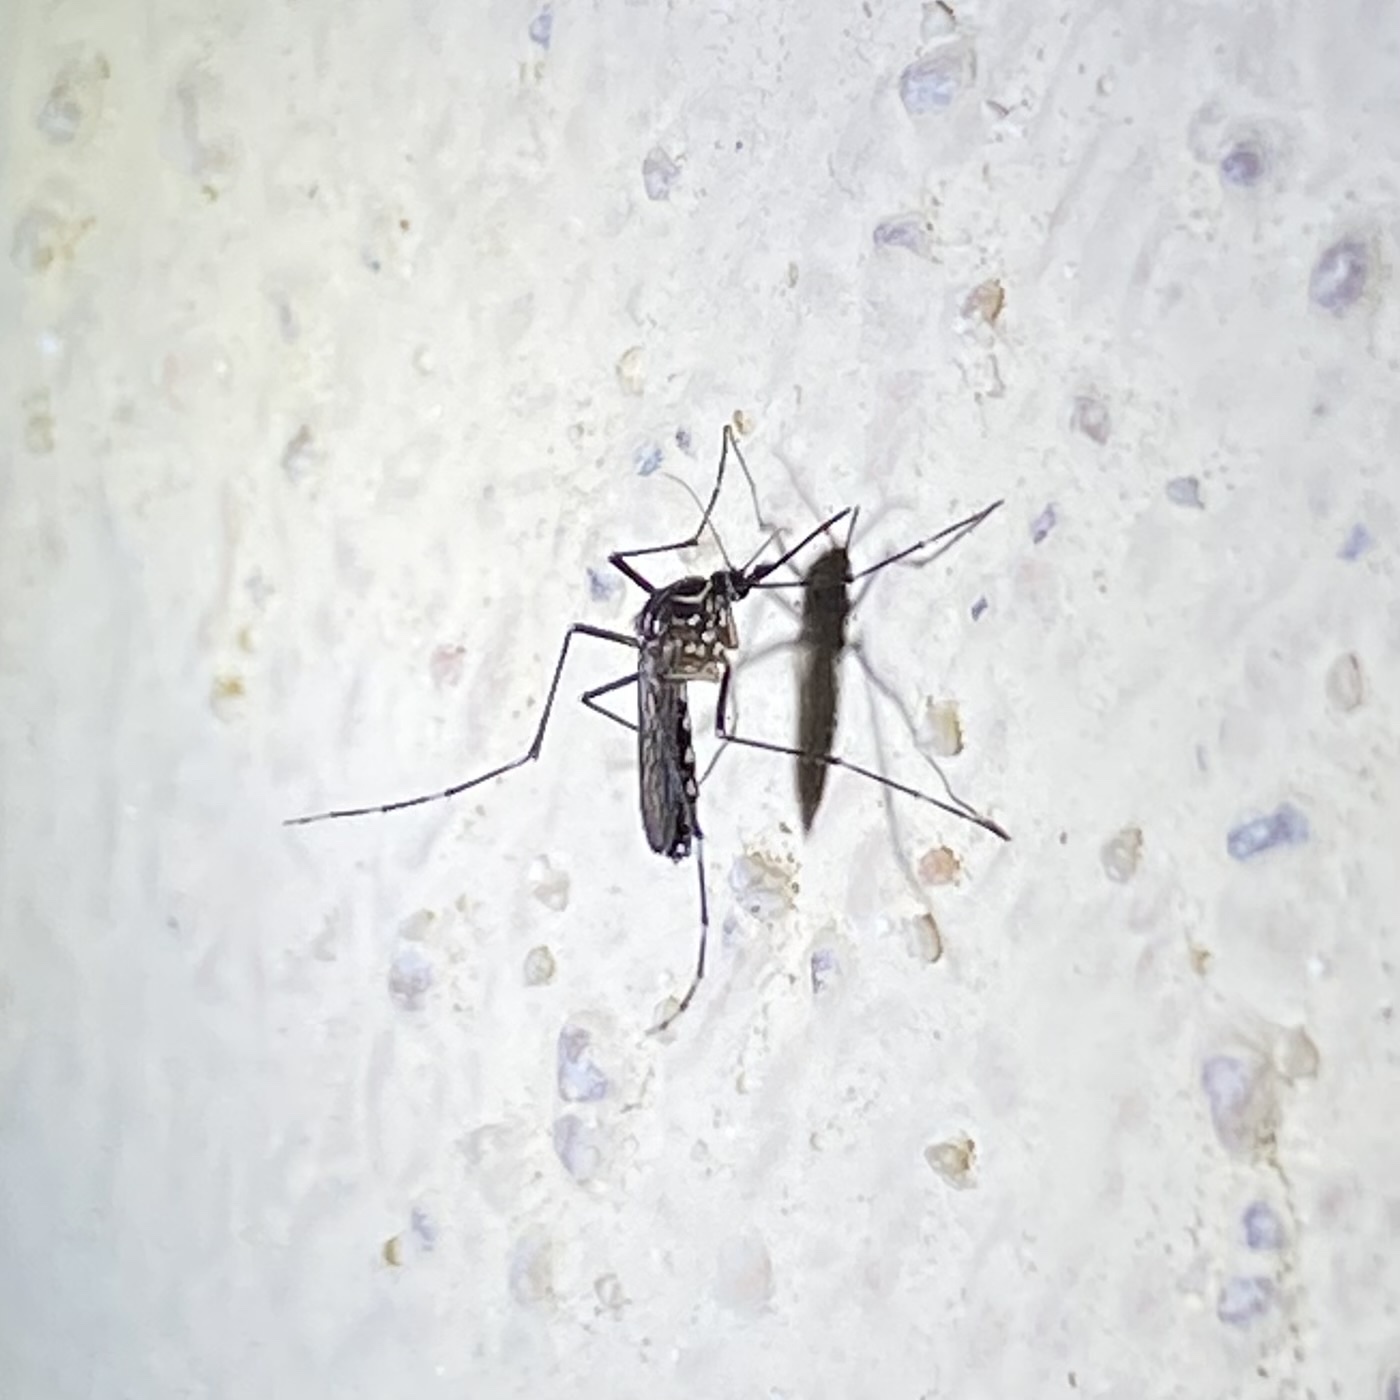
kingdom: Animalia
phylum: Arthropoda
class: Insecta
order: Diptera
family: Culicidae
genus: Aedes
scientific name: Aedes aegypti
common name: Yellow fever mosquito
